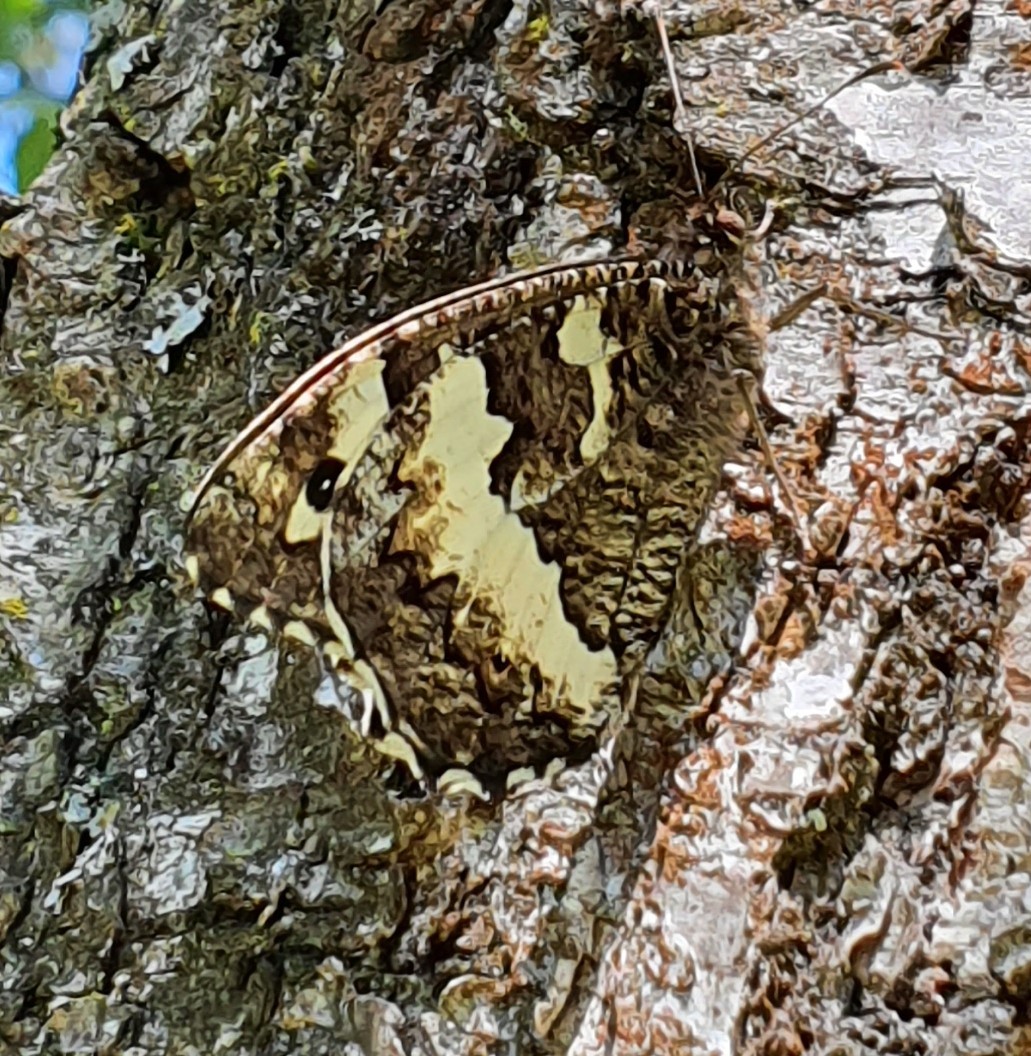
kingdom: Animalia
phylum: Arthropoda
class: Insecta
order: Lepidoptera
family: Lycaenidae
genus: Loweia
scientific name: Loweia tityrus
